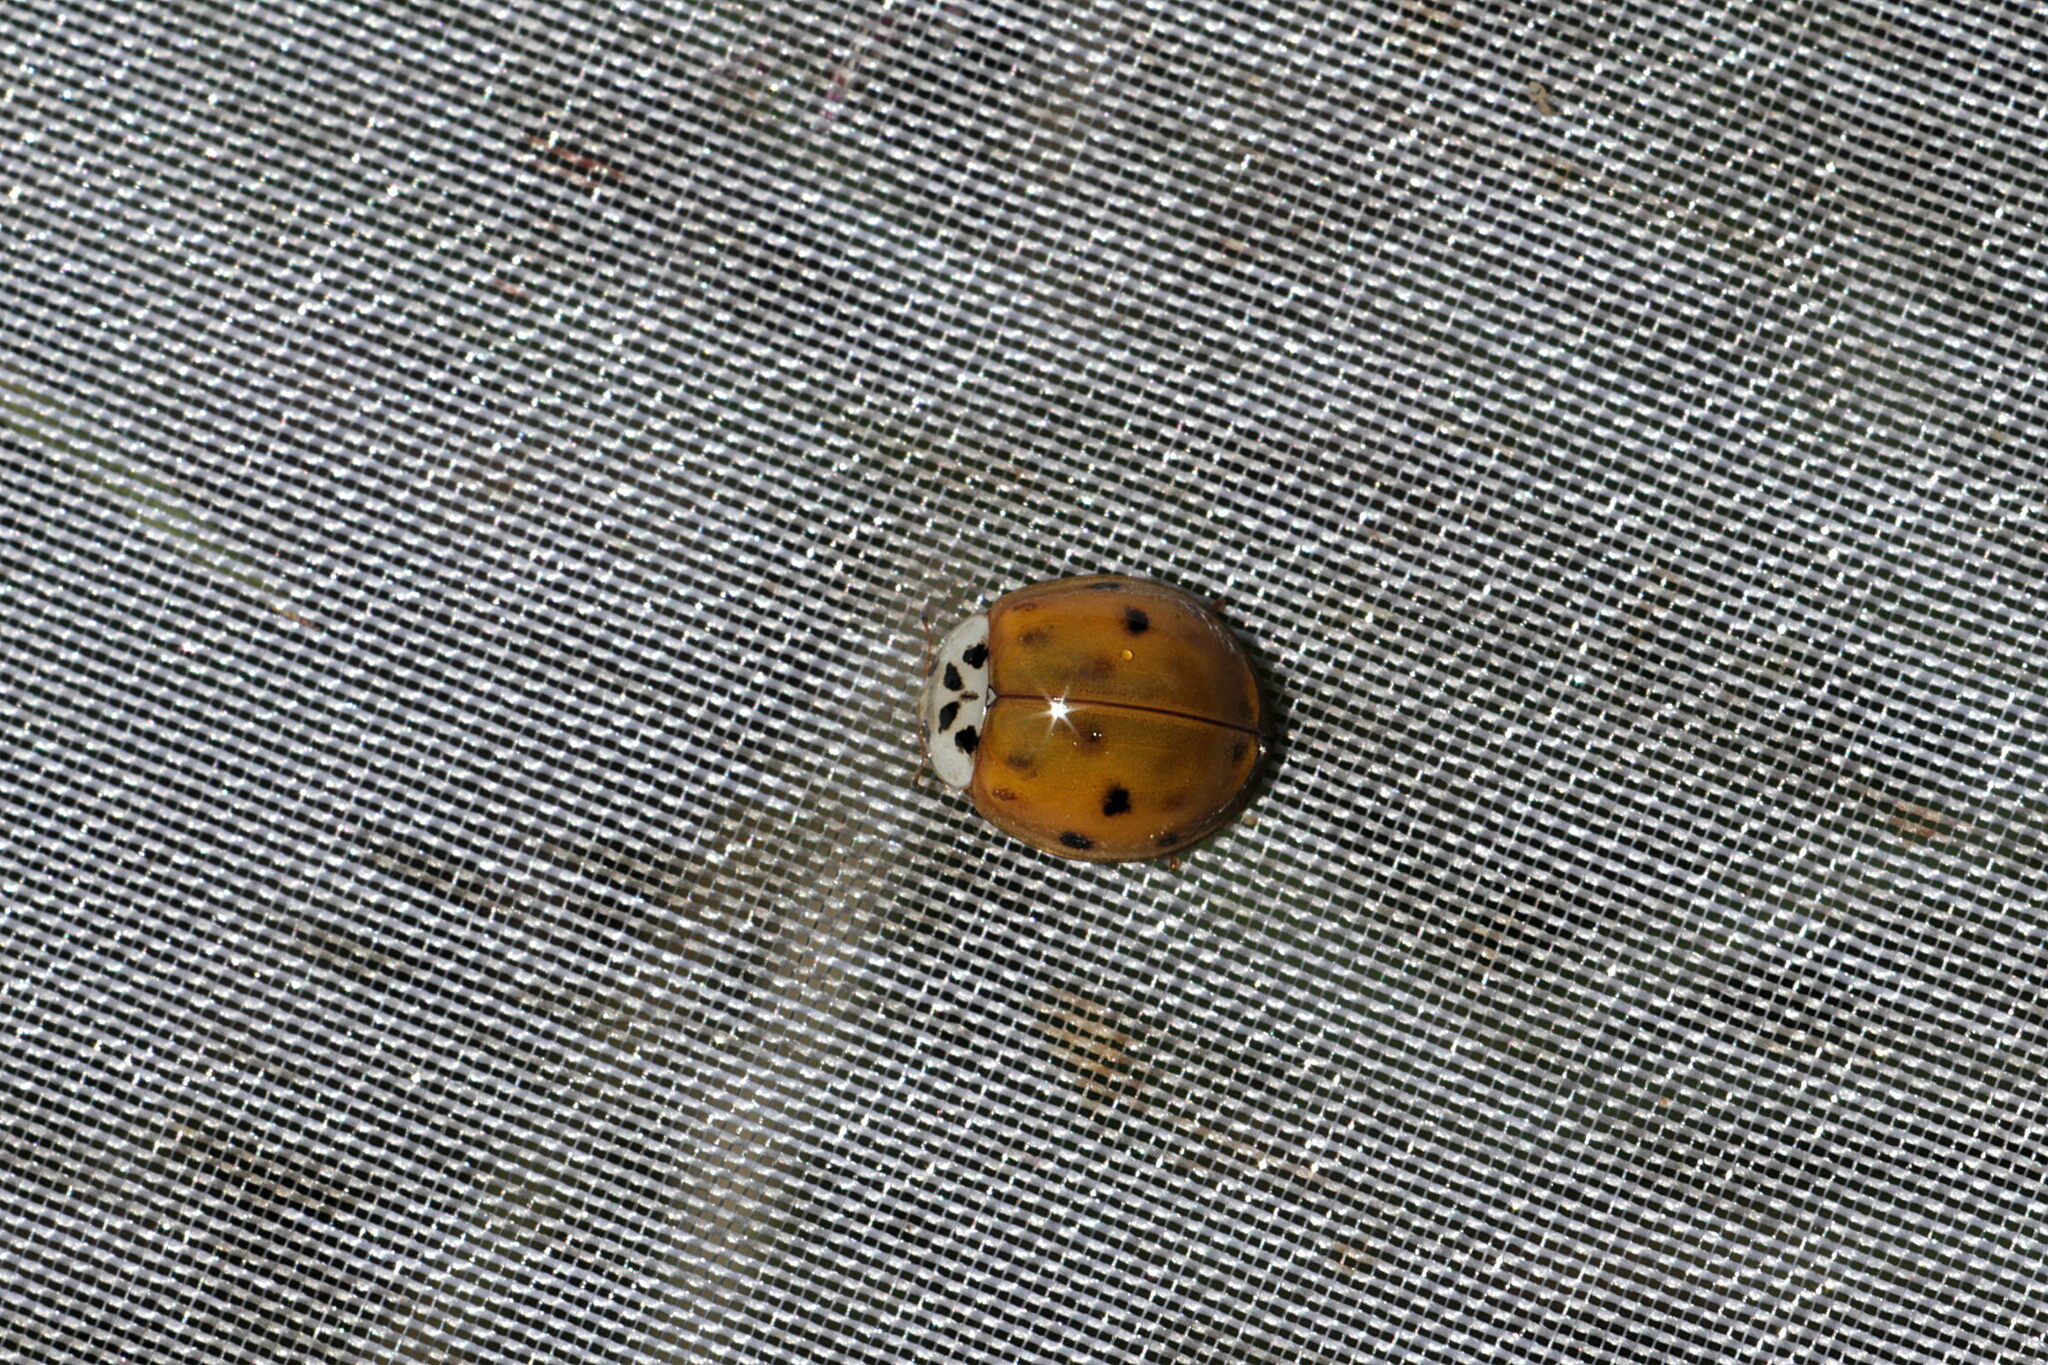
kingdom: Animalia
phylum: Arthropoda
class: Insecta
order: Coleoptera
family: Coccinellidae
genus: Harmonia
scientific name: Harmonia axyridis
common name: Harlequin ladybird
